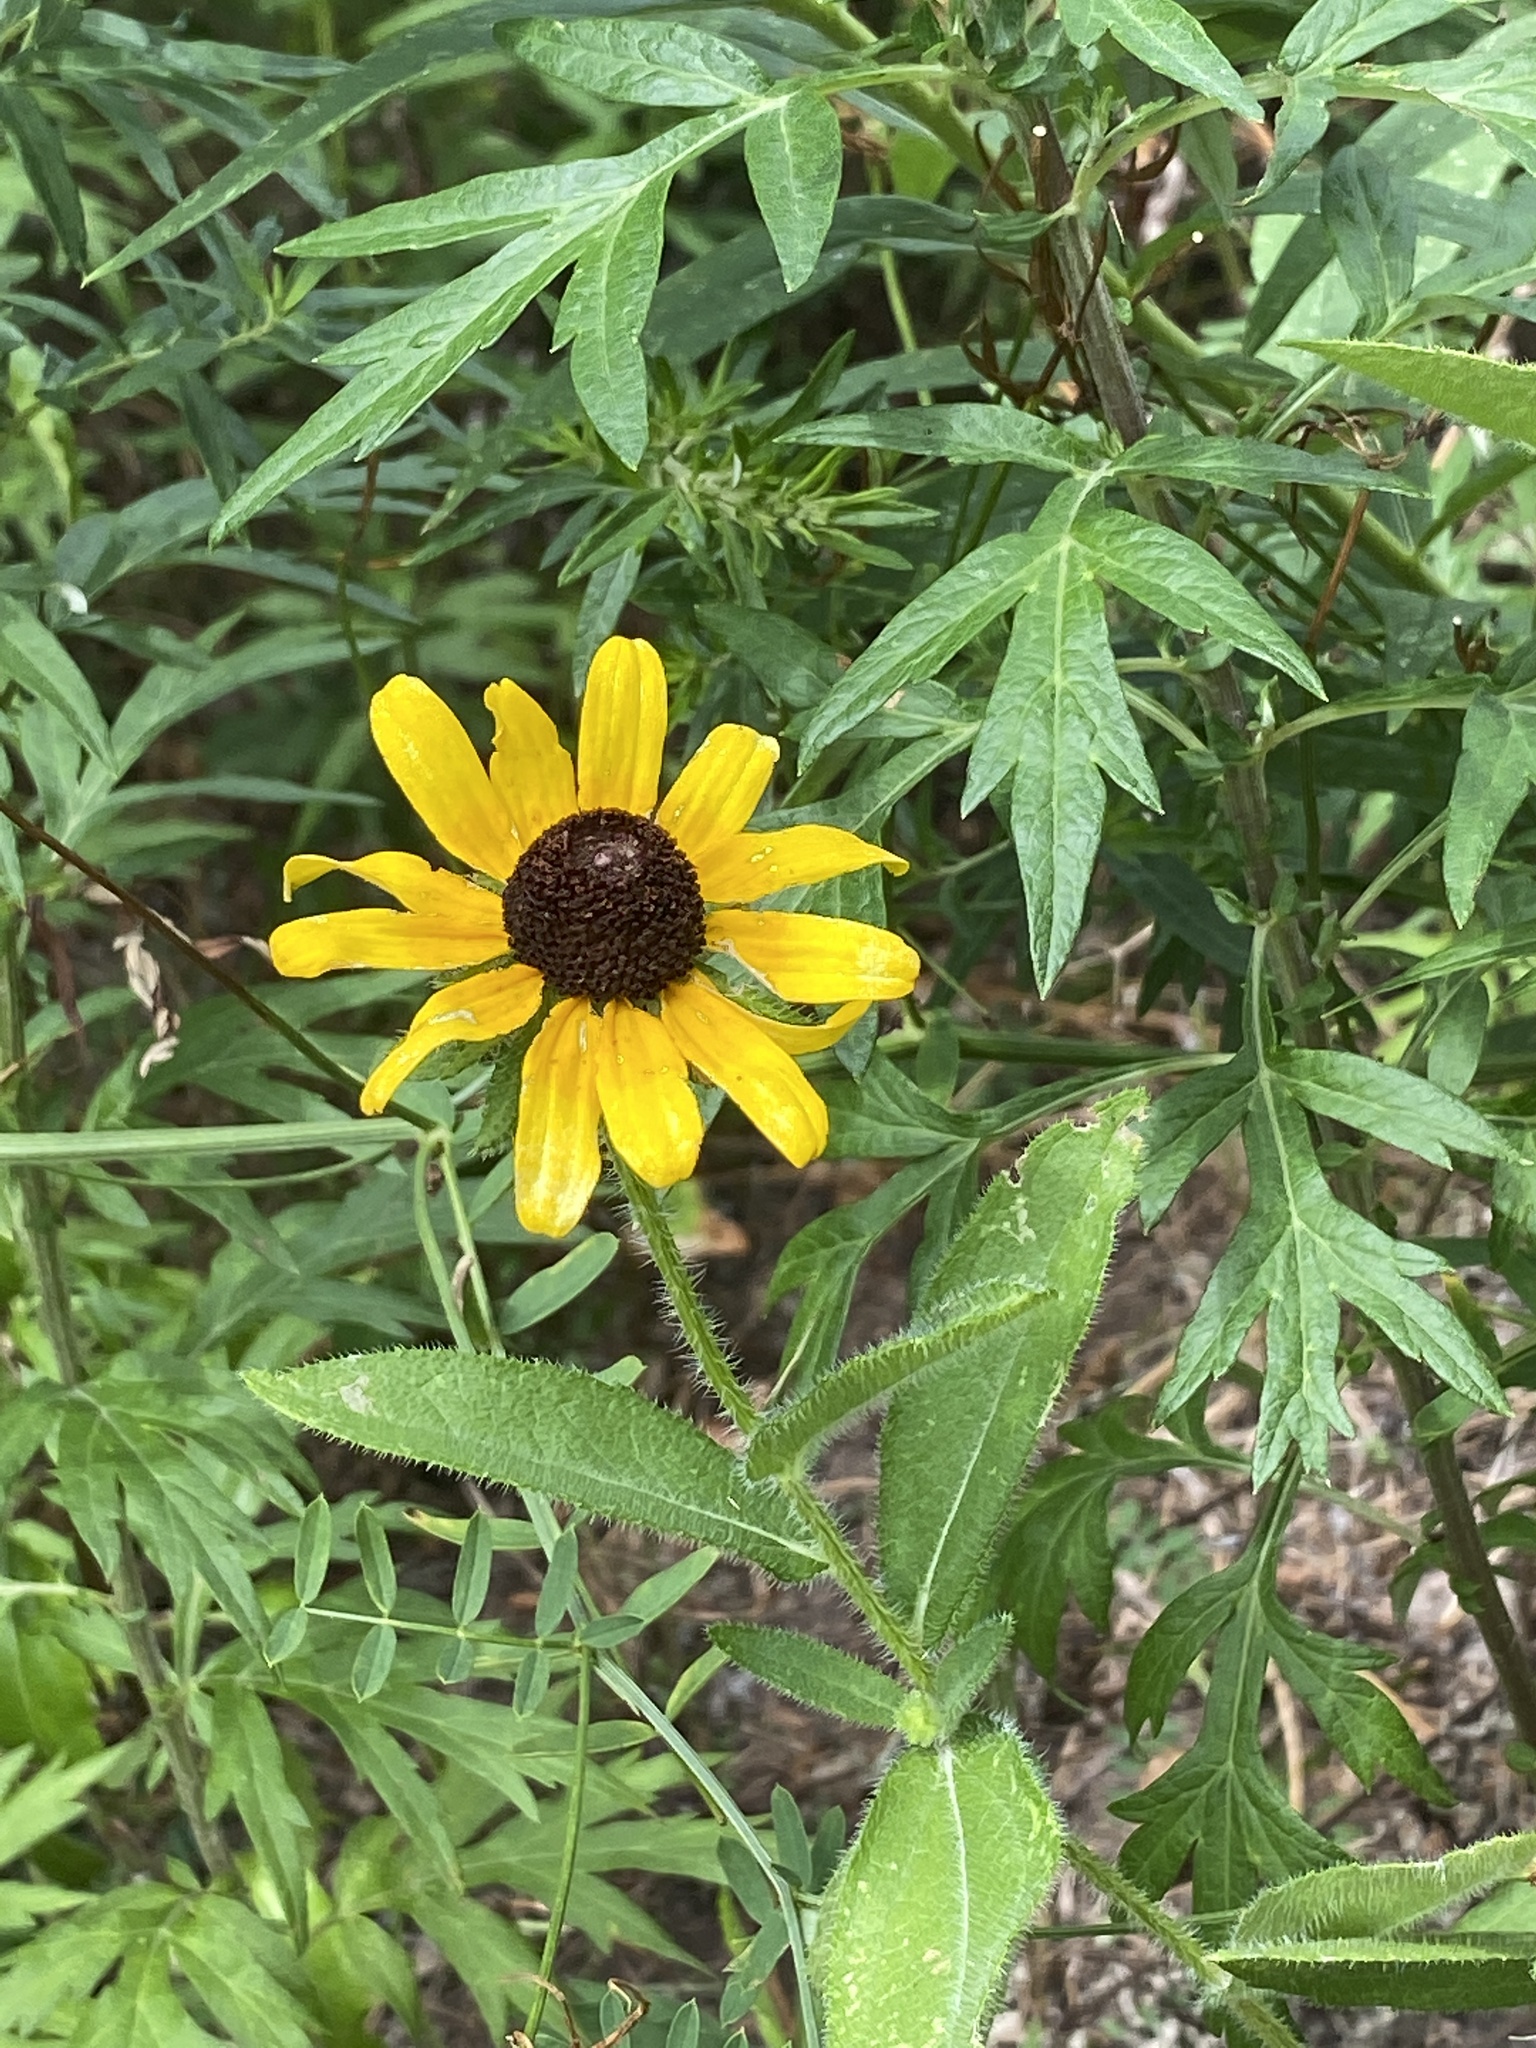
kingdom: Plantae
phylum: Tracheophyta
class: Magnoliopsida
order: Asterales
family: Asteraceae
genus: Rudbeckia
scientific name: Rudbeckia hirta
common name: Black-eyed-susan
